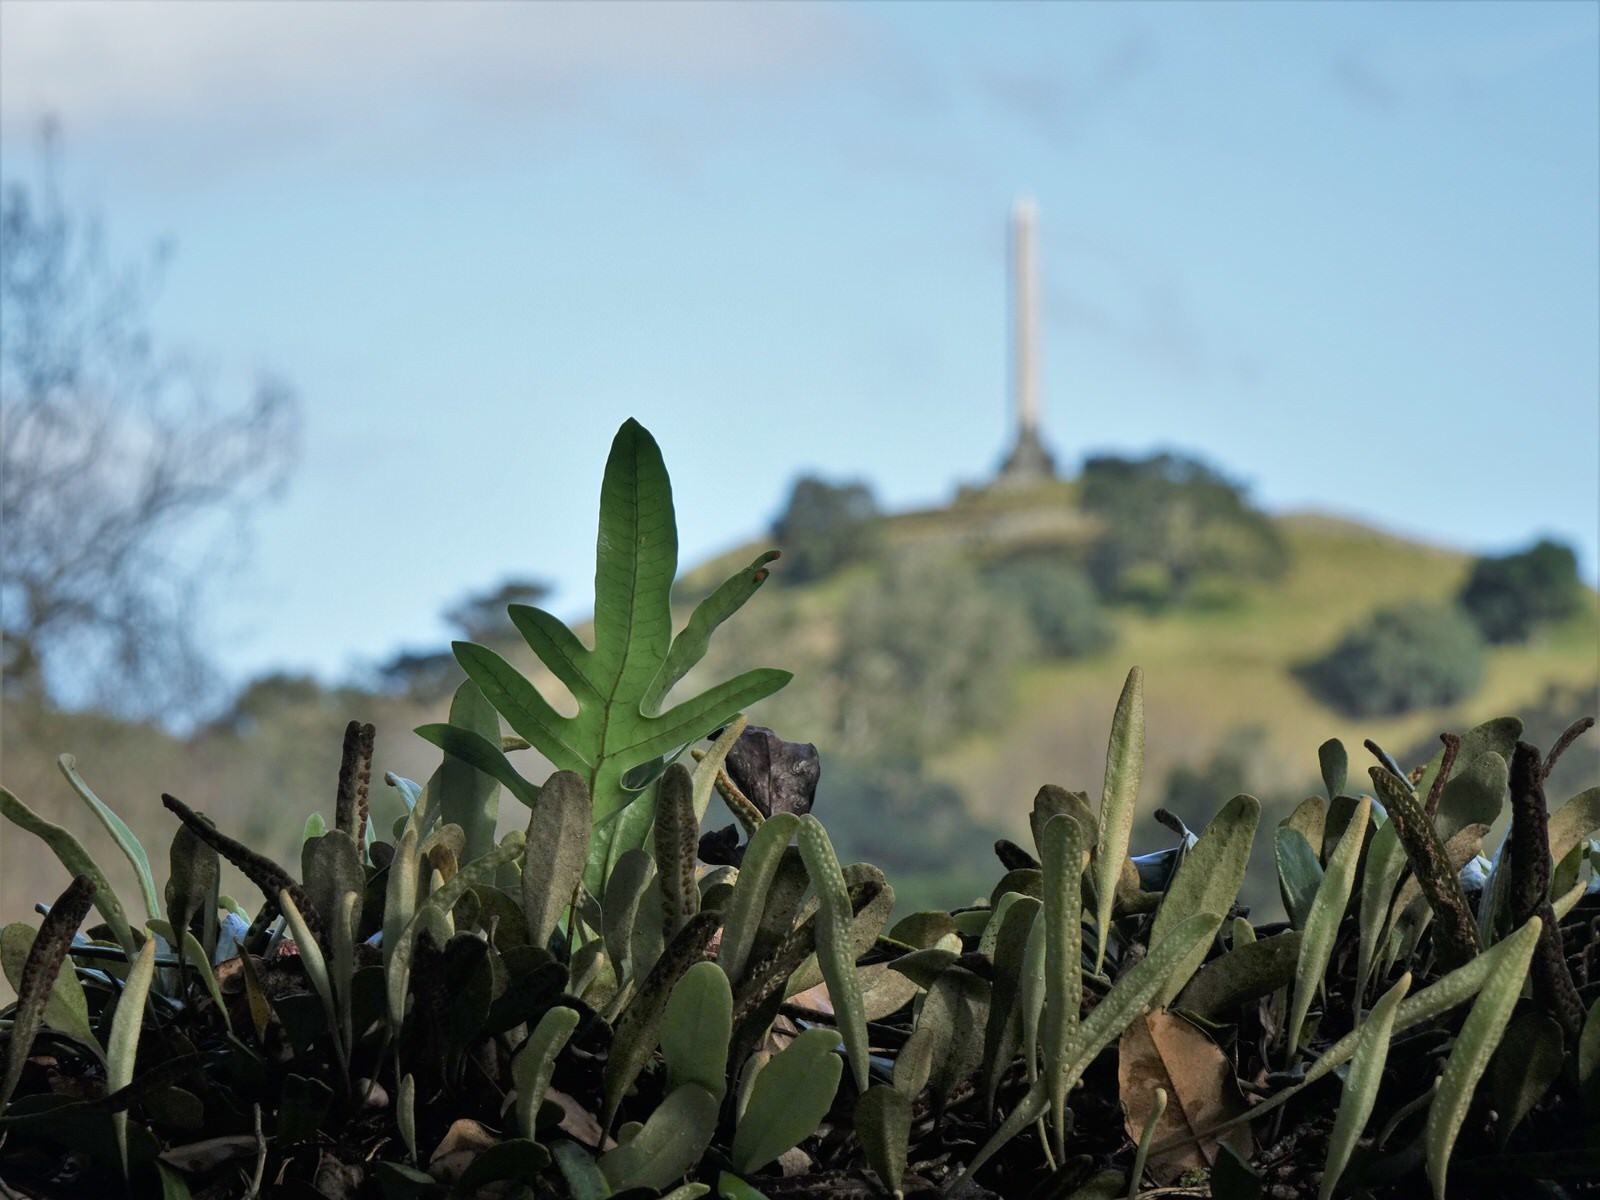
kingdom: Plantae
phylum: Tracheophyta
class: Polypodiopsida
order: Polypodiales
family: Polypodiaceae
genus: Lecanopteris
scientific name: Lecanopteris pustulata
